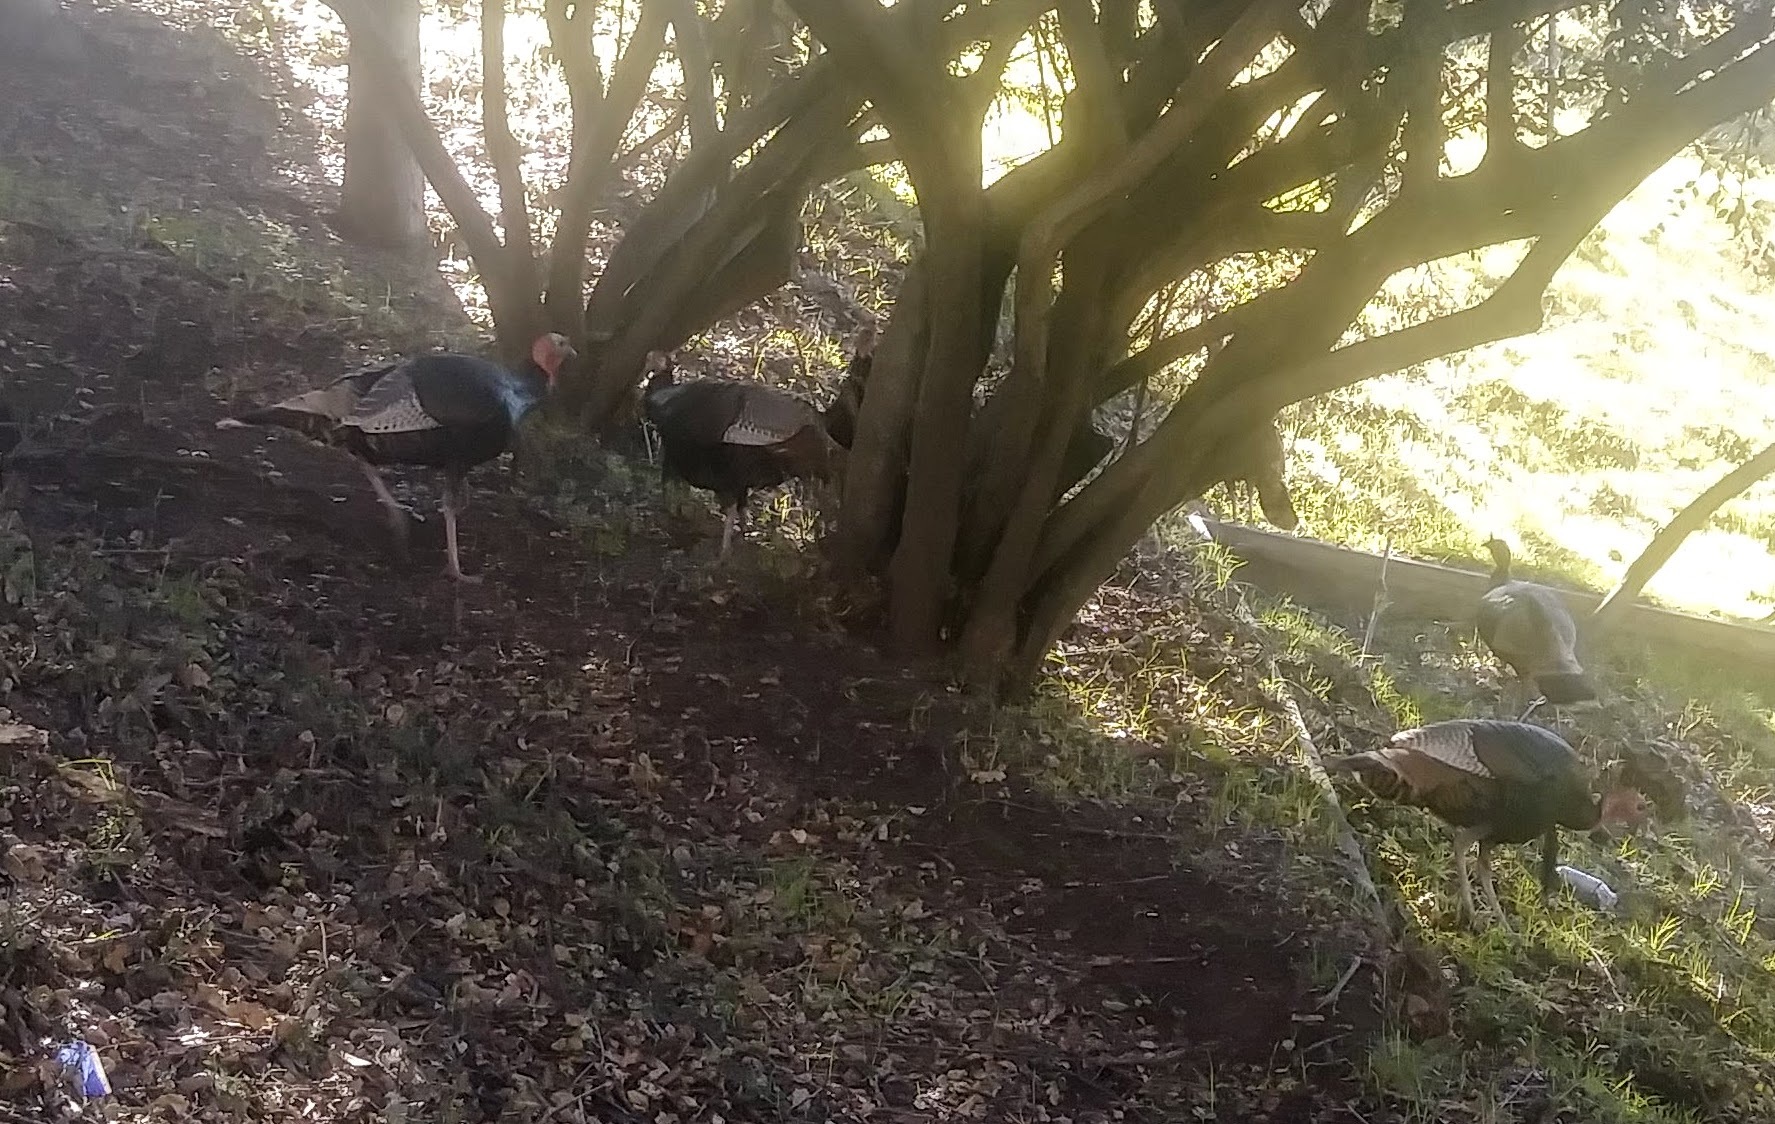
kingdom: Animalia
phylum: Chordata
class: Aves
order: Galliformes
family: Phasianidae
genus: Meleagris
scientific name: Meleagris gallopavo
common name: Wild turkey
